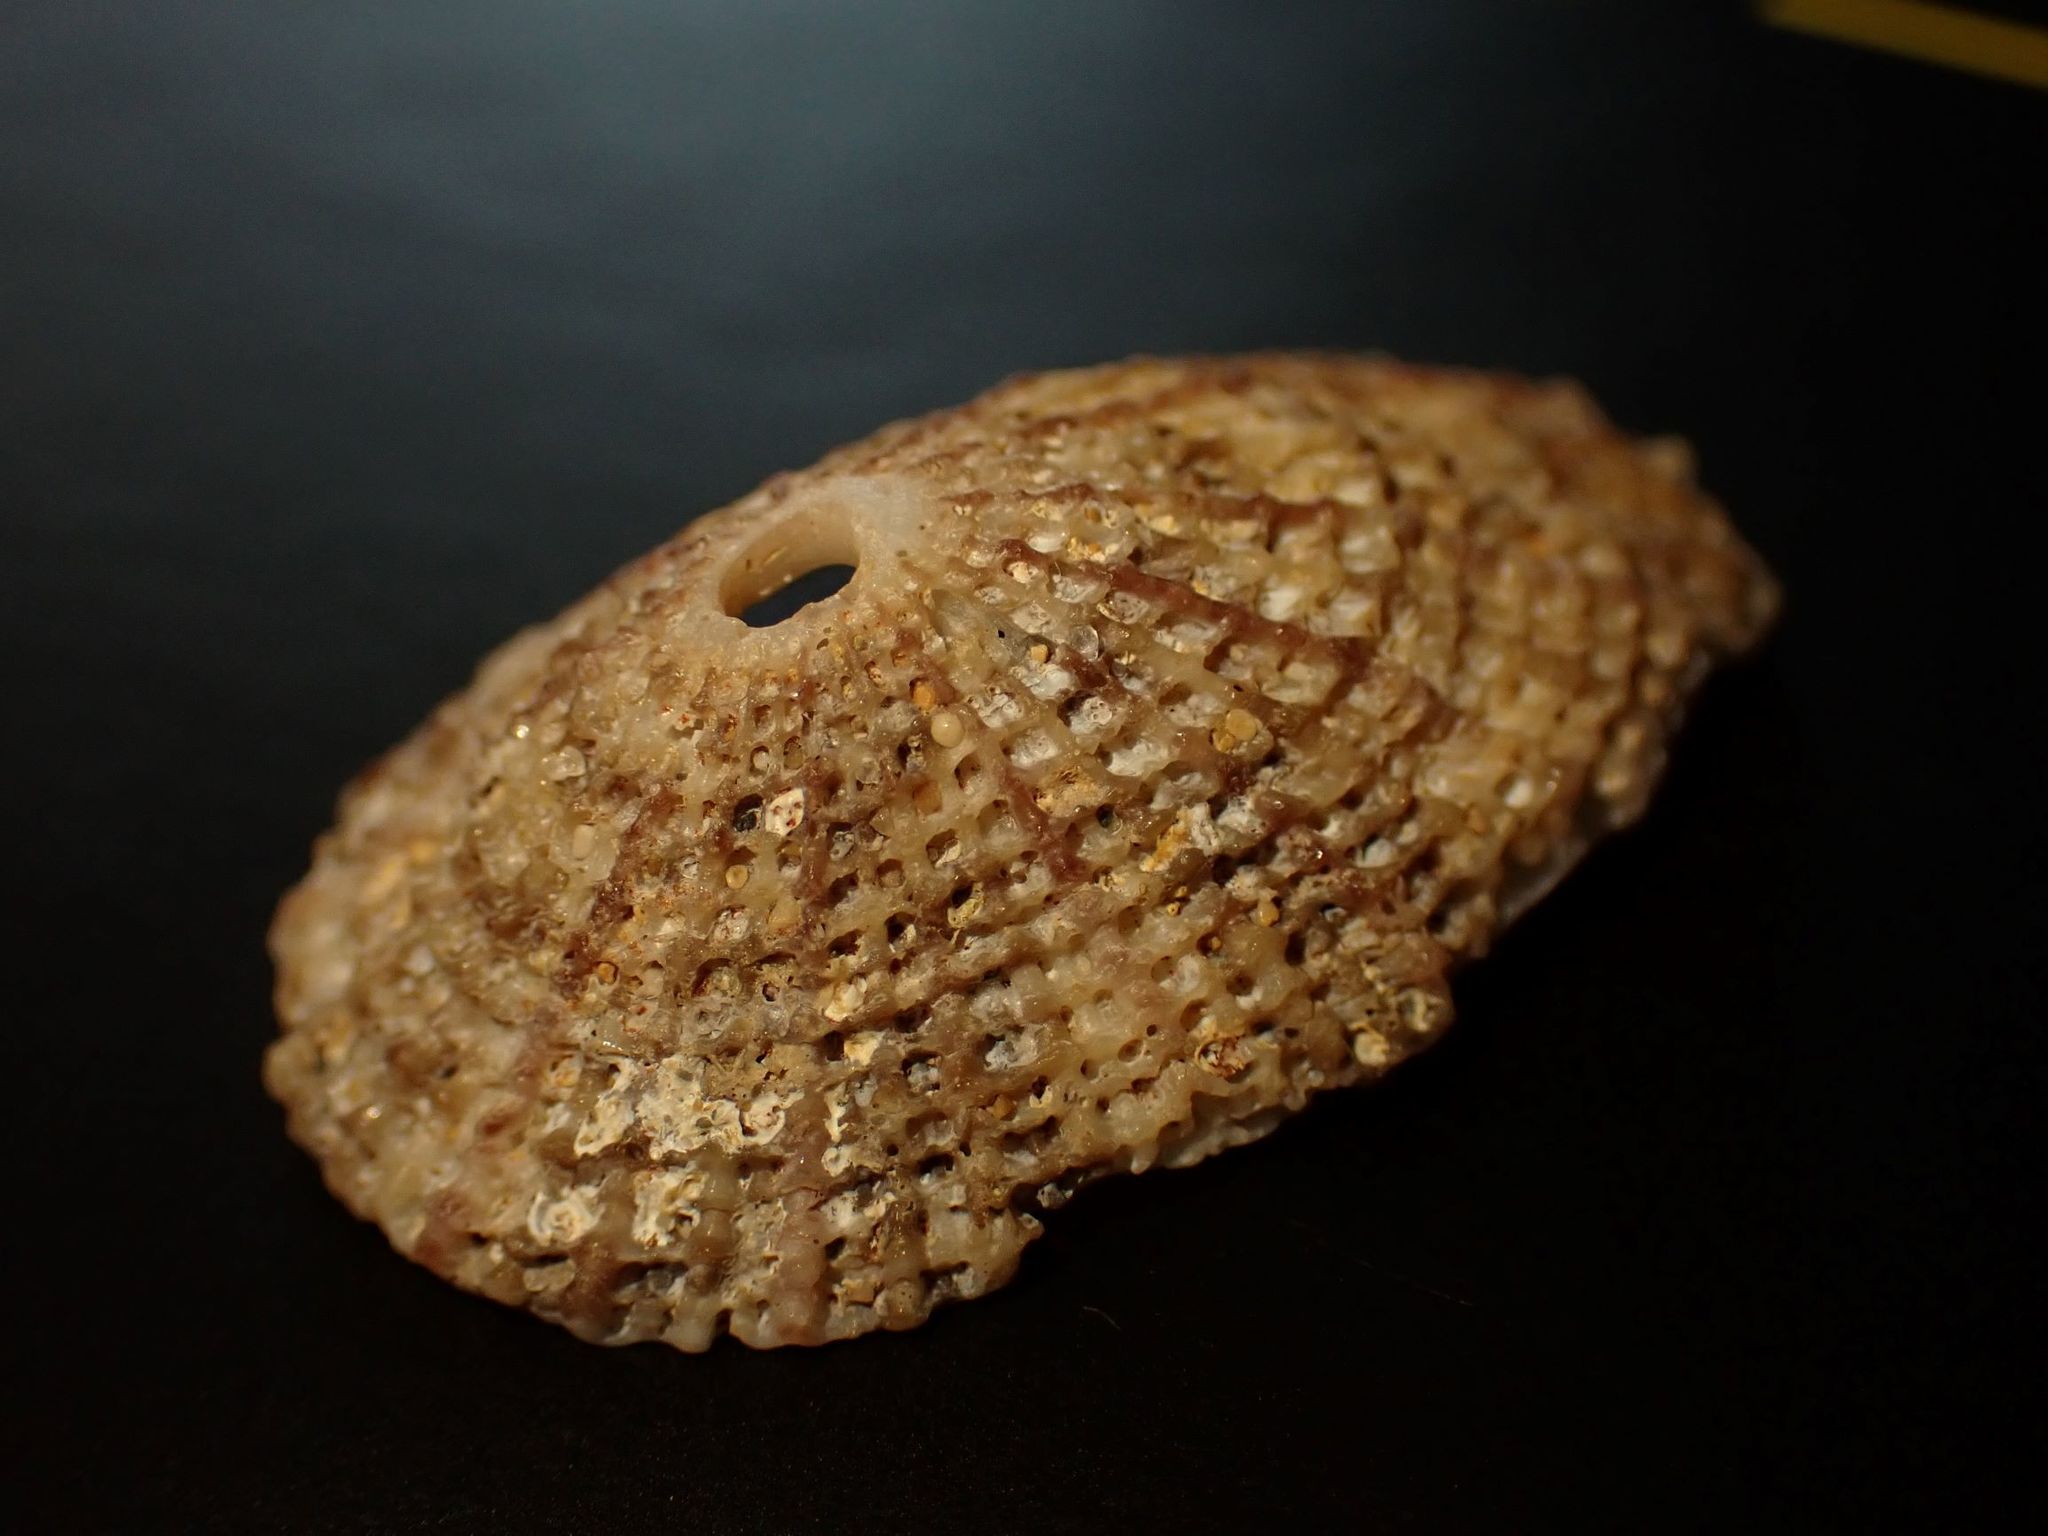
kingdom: Animalia
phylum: Mollusca
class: Gastropoda
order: Lepetellida
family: Fissurellidae
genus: Diodora
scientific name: Diodora lineata
